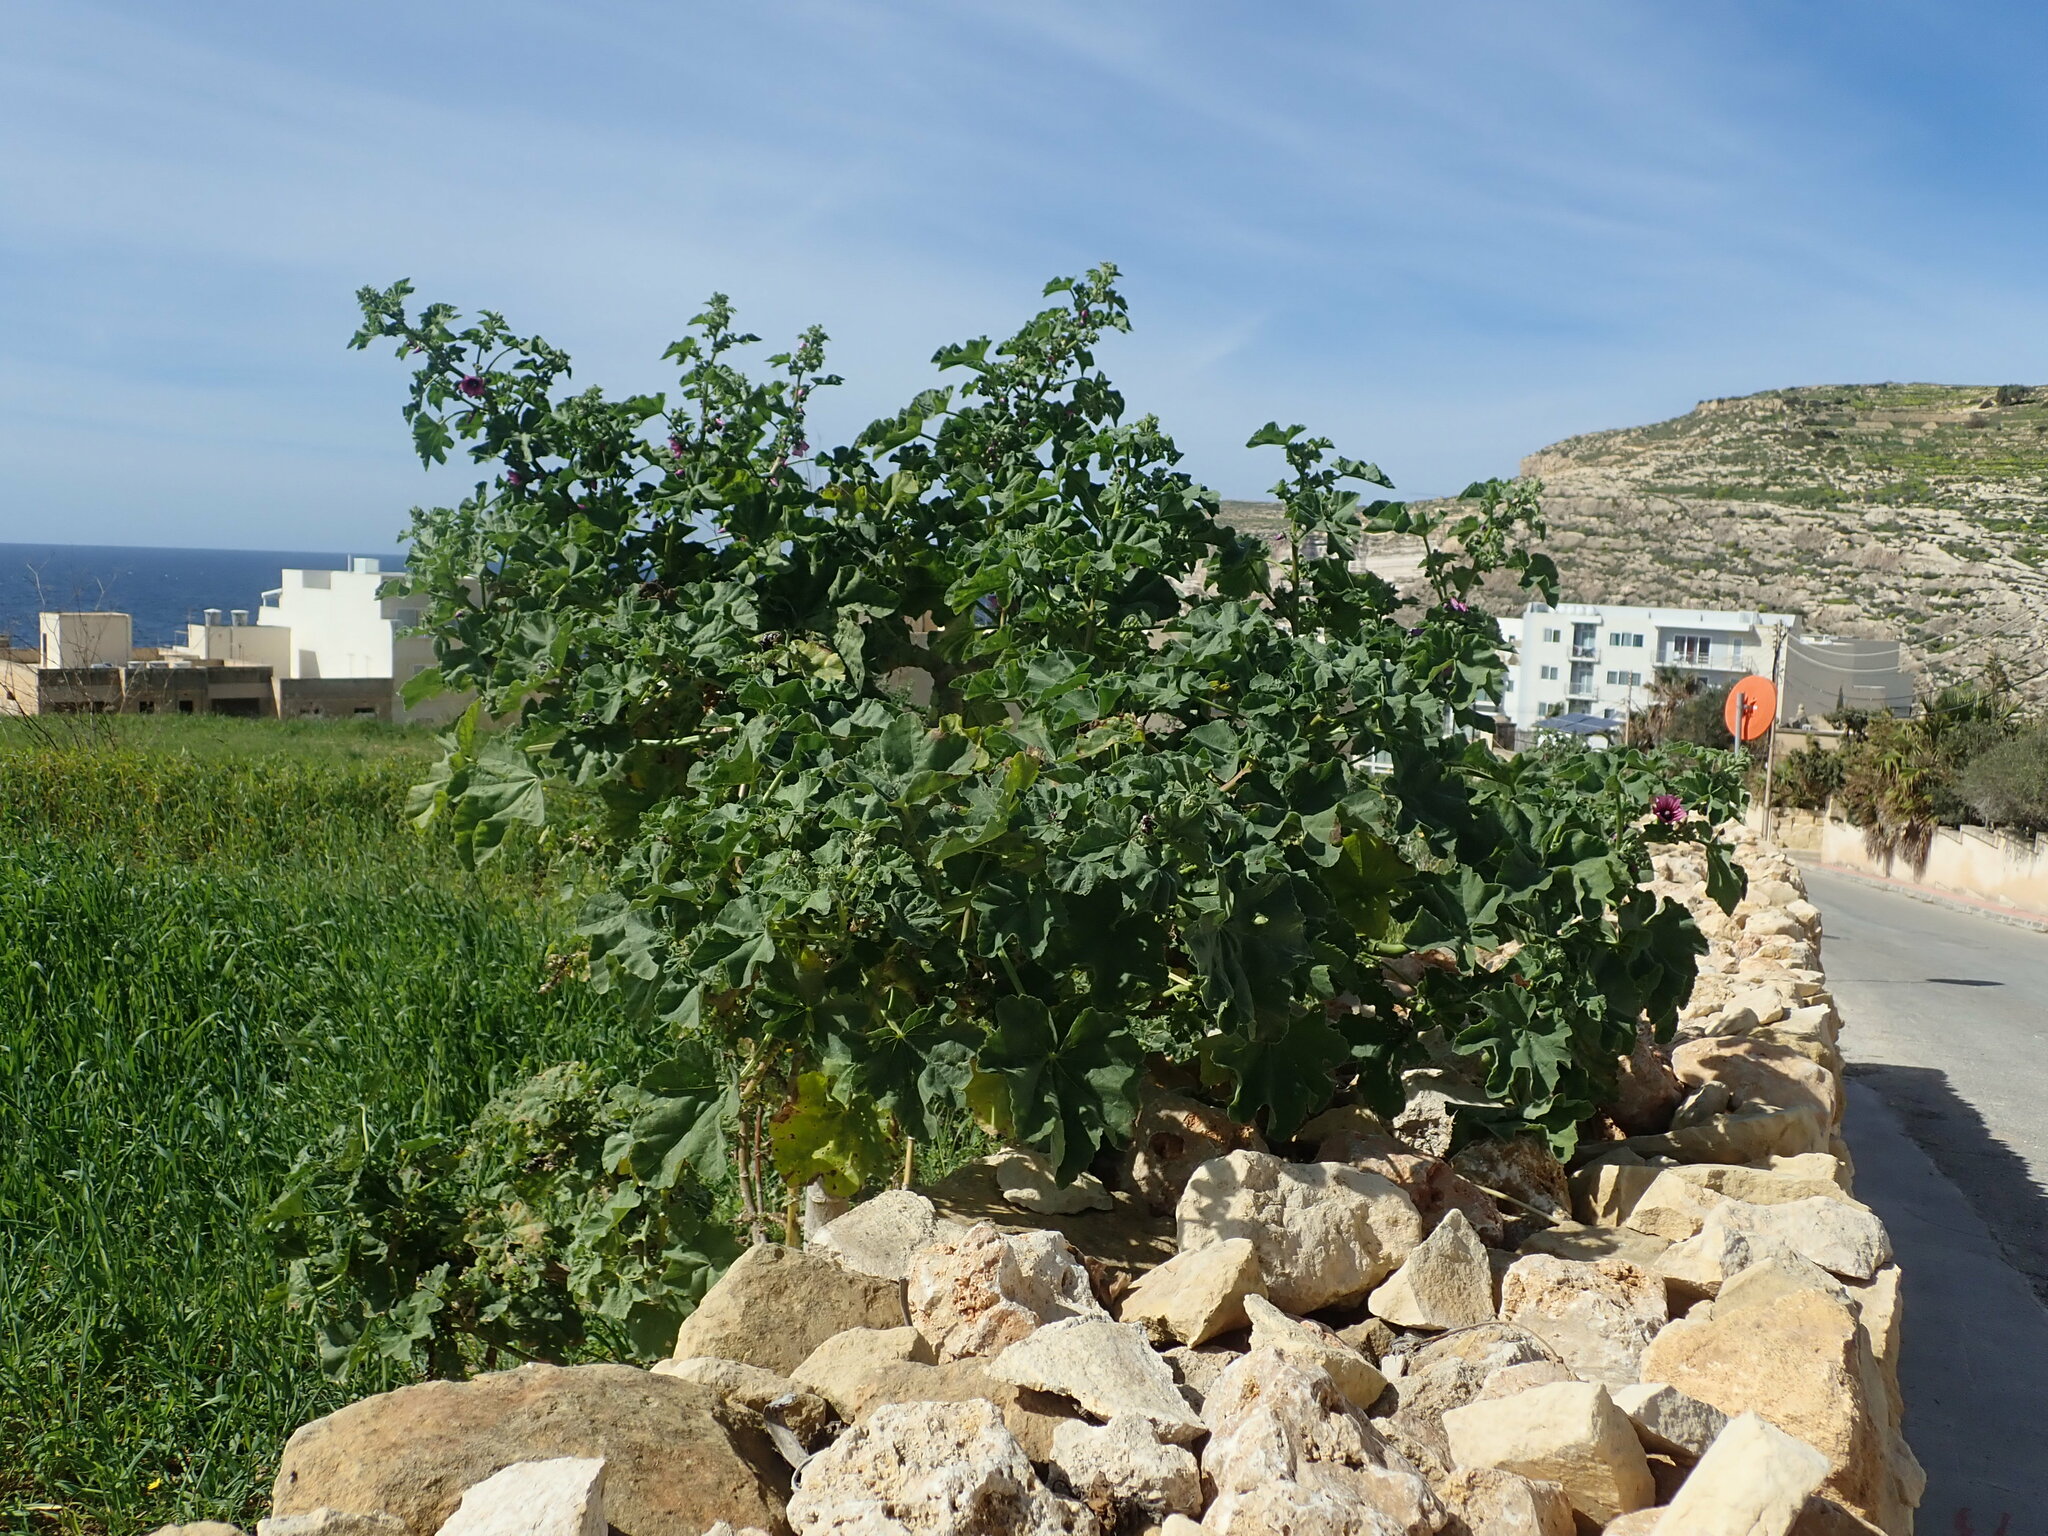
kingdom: Plantae
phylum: Tracheophyta
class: Magnoliopsida
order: Malvales
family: Malvaceae
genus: Malva
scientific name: Malva arborea
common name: Tree mallow
